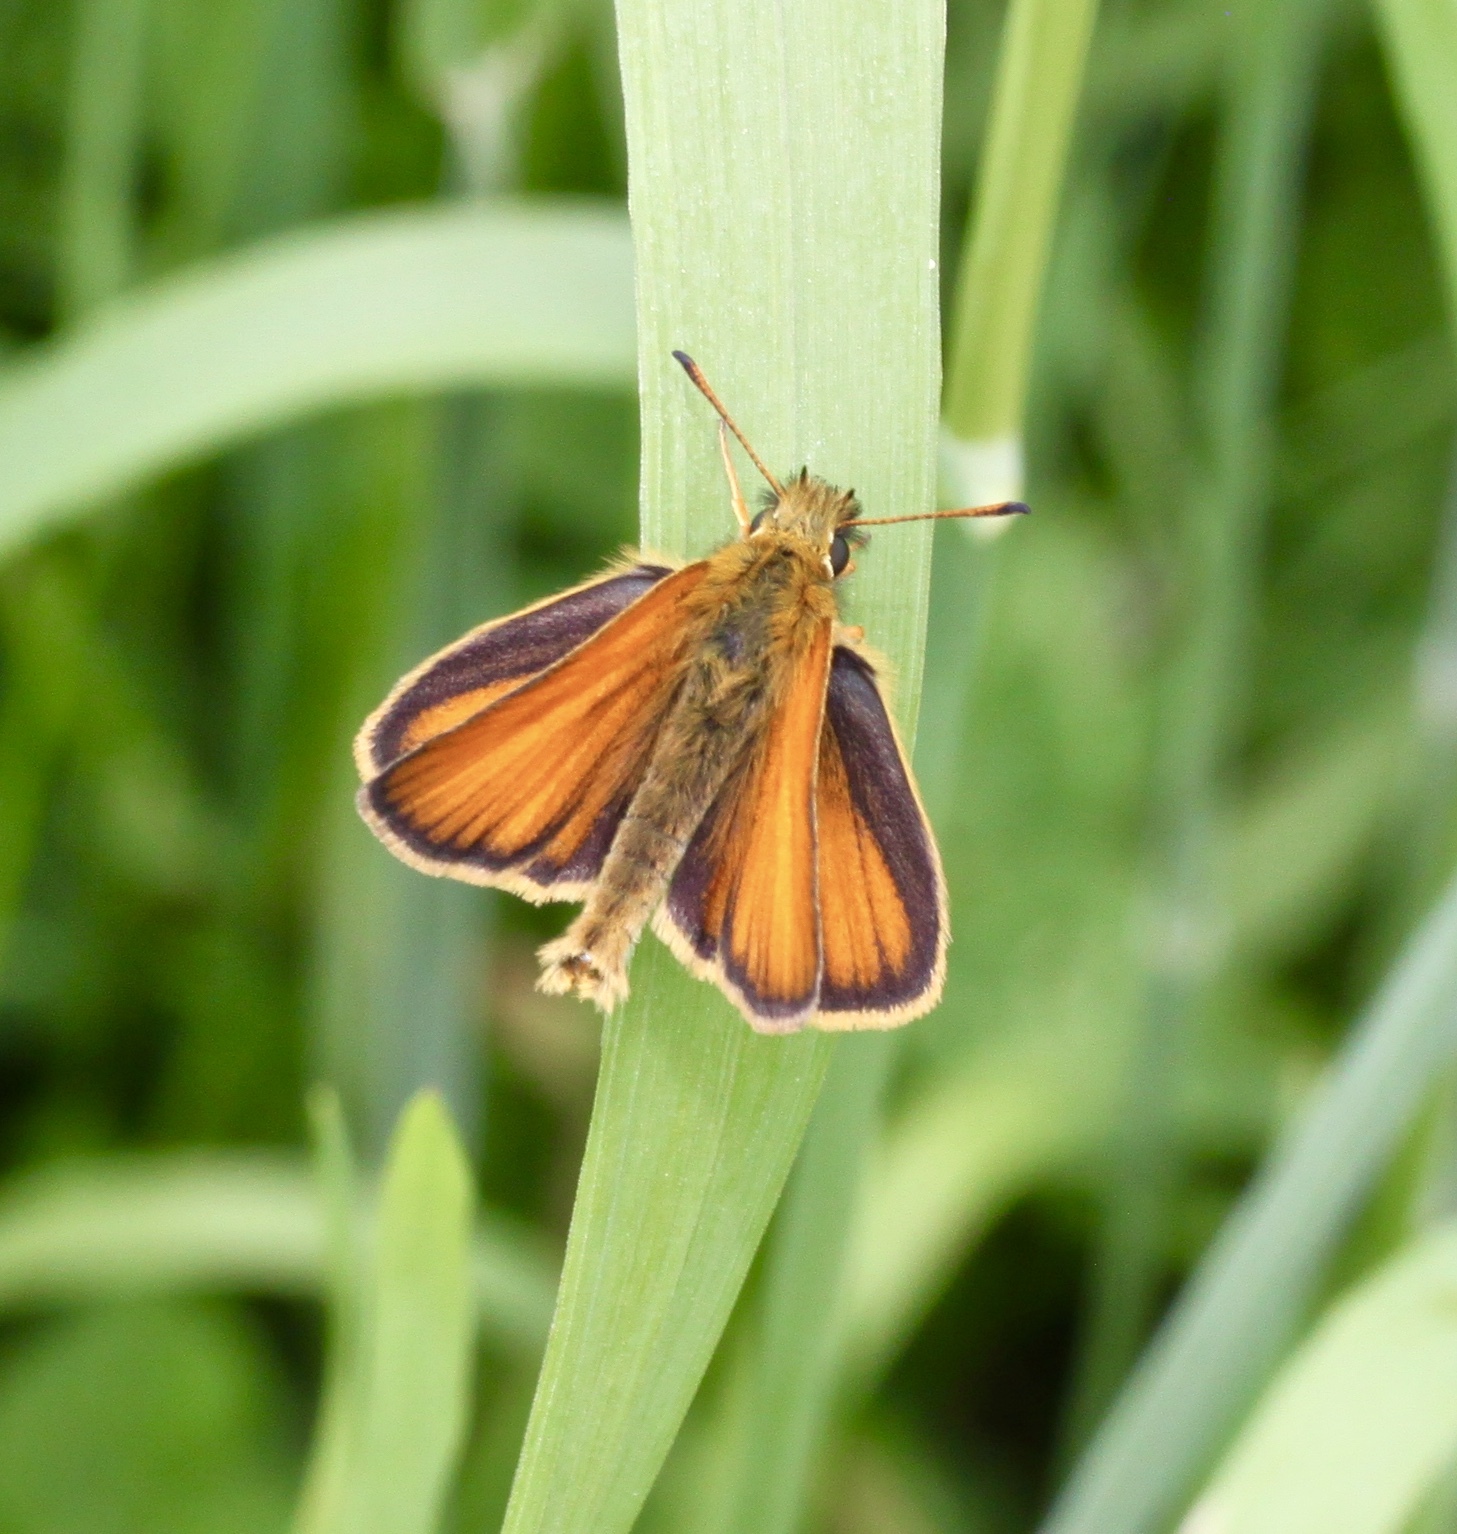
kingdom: Animalia
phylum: Arthropoda
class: Insecta
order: Lepidoptera
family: Hesperiidae
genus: Thymelicus
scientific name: Thymelicus lineola
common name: Essex skipper
